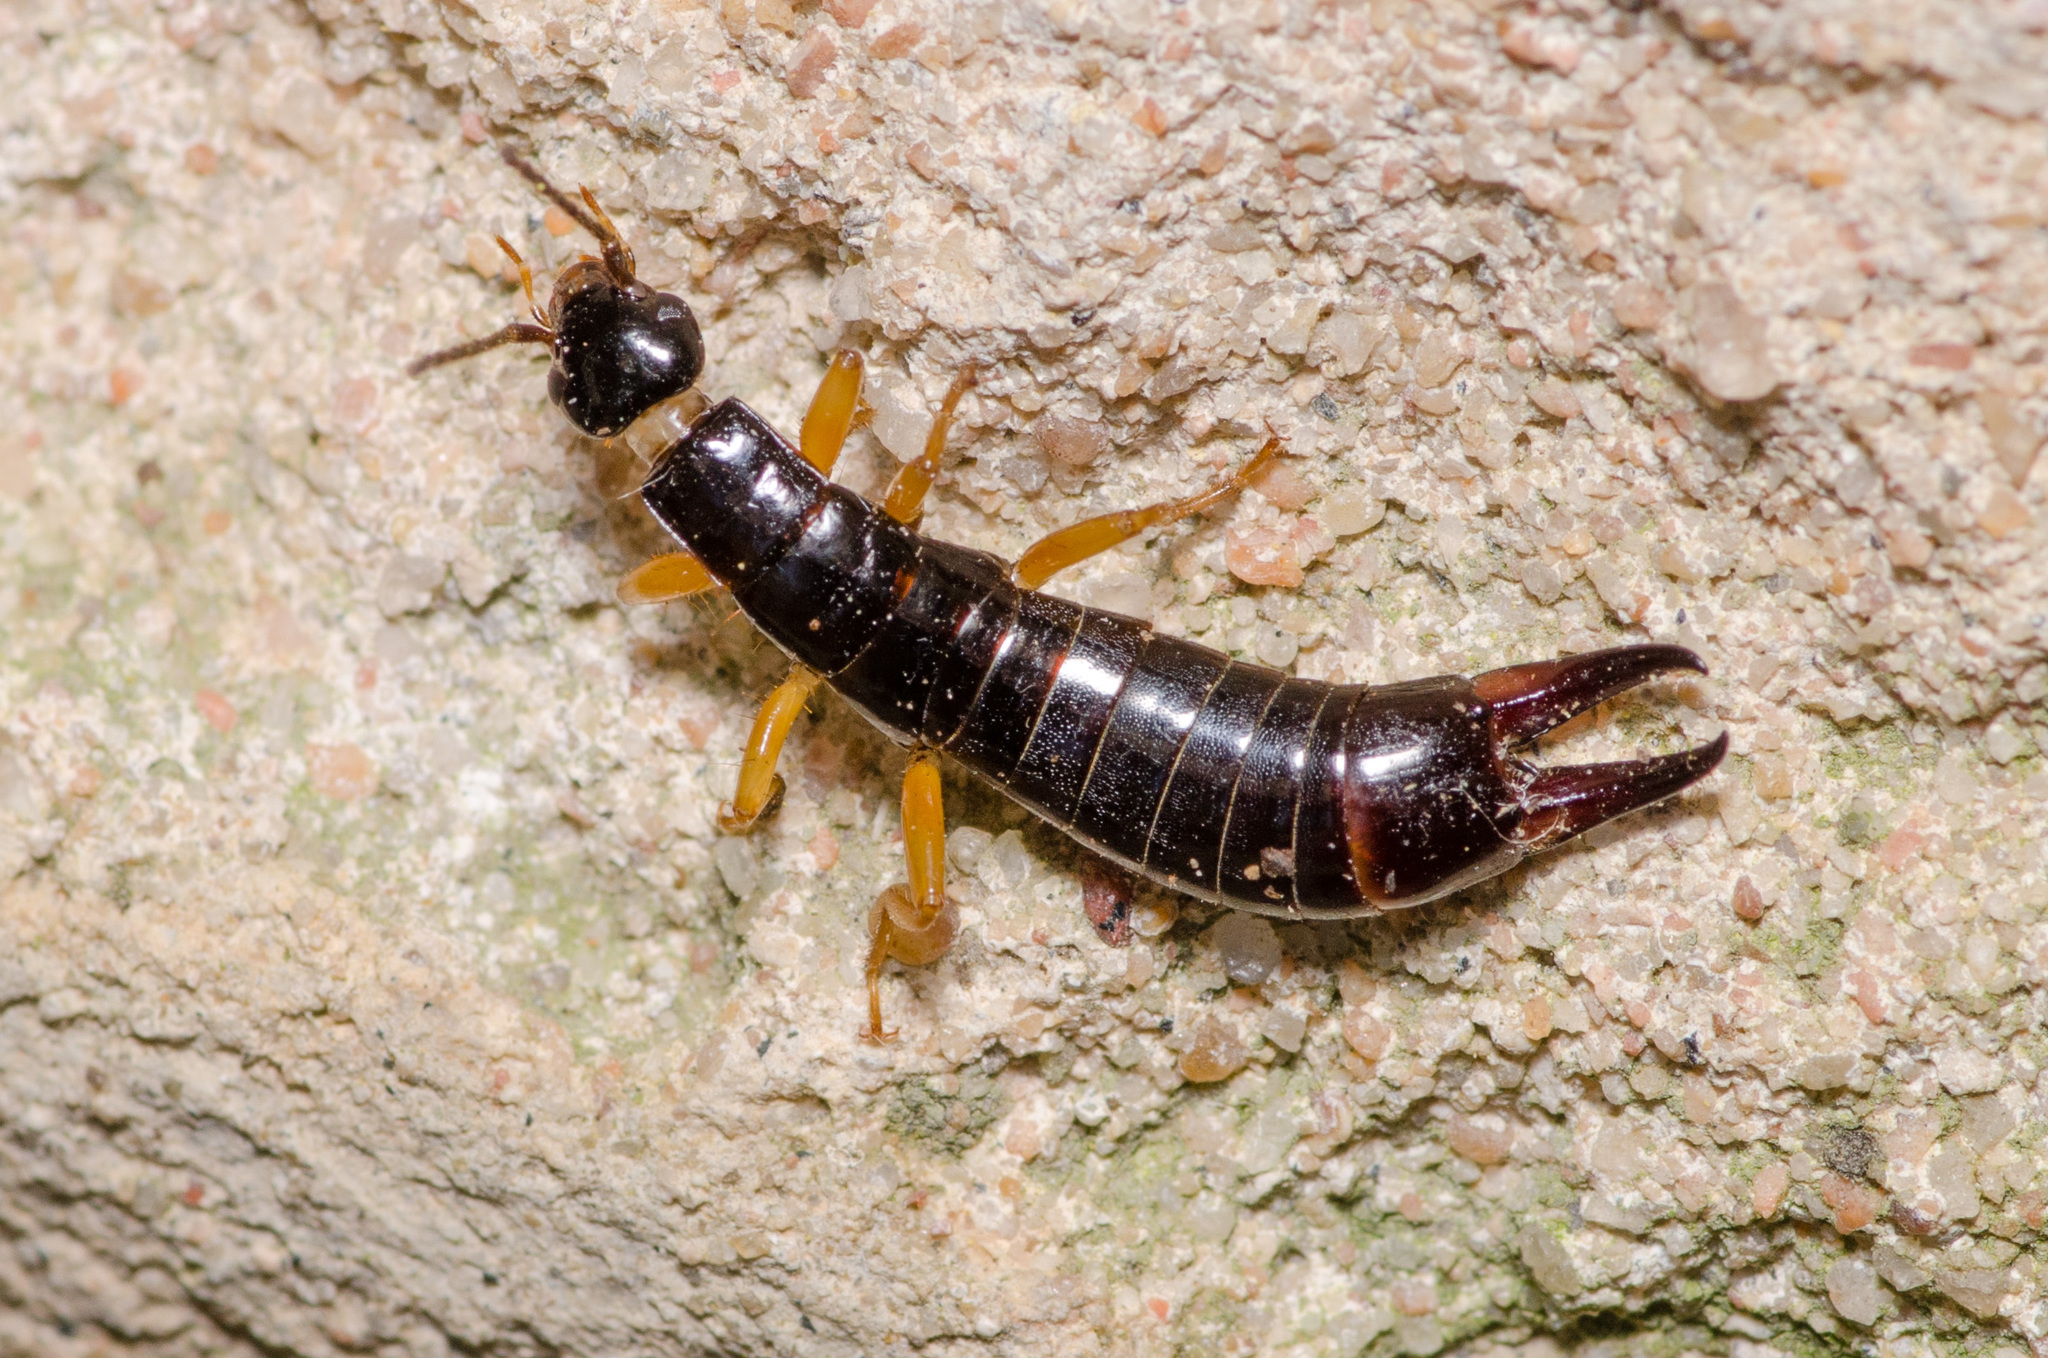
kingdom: Animalia
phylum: Arthropoda
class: Insecta
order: Dermaptera
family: Anisolabididae
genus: Euborellia
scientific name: Euborellia arcanum
